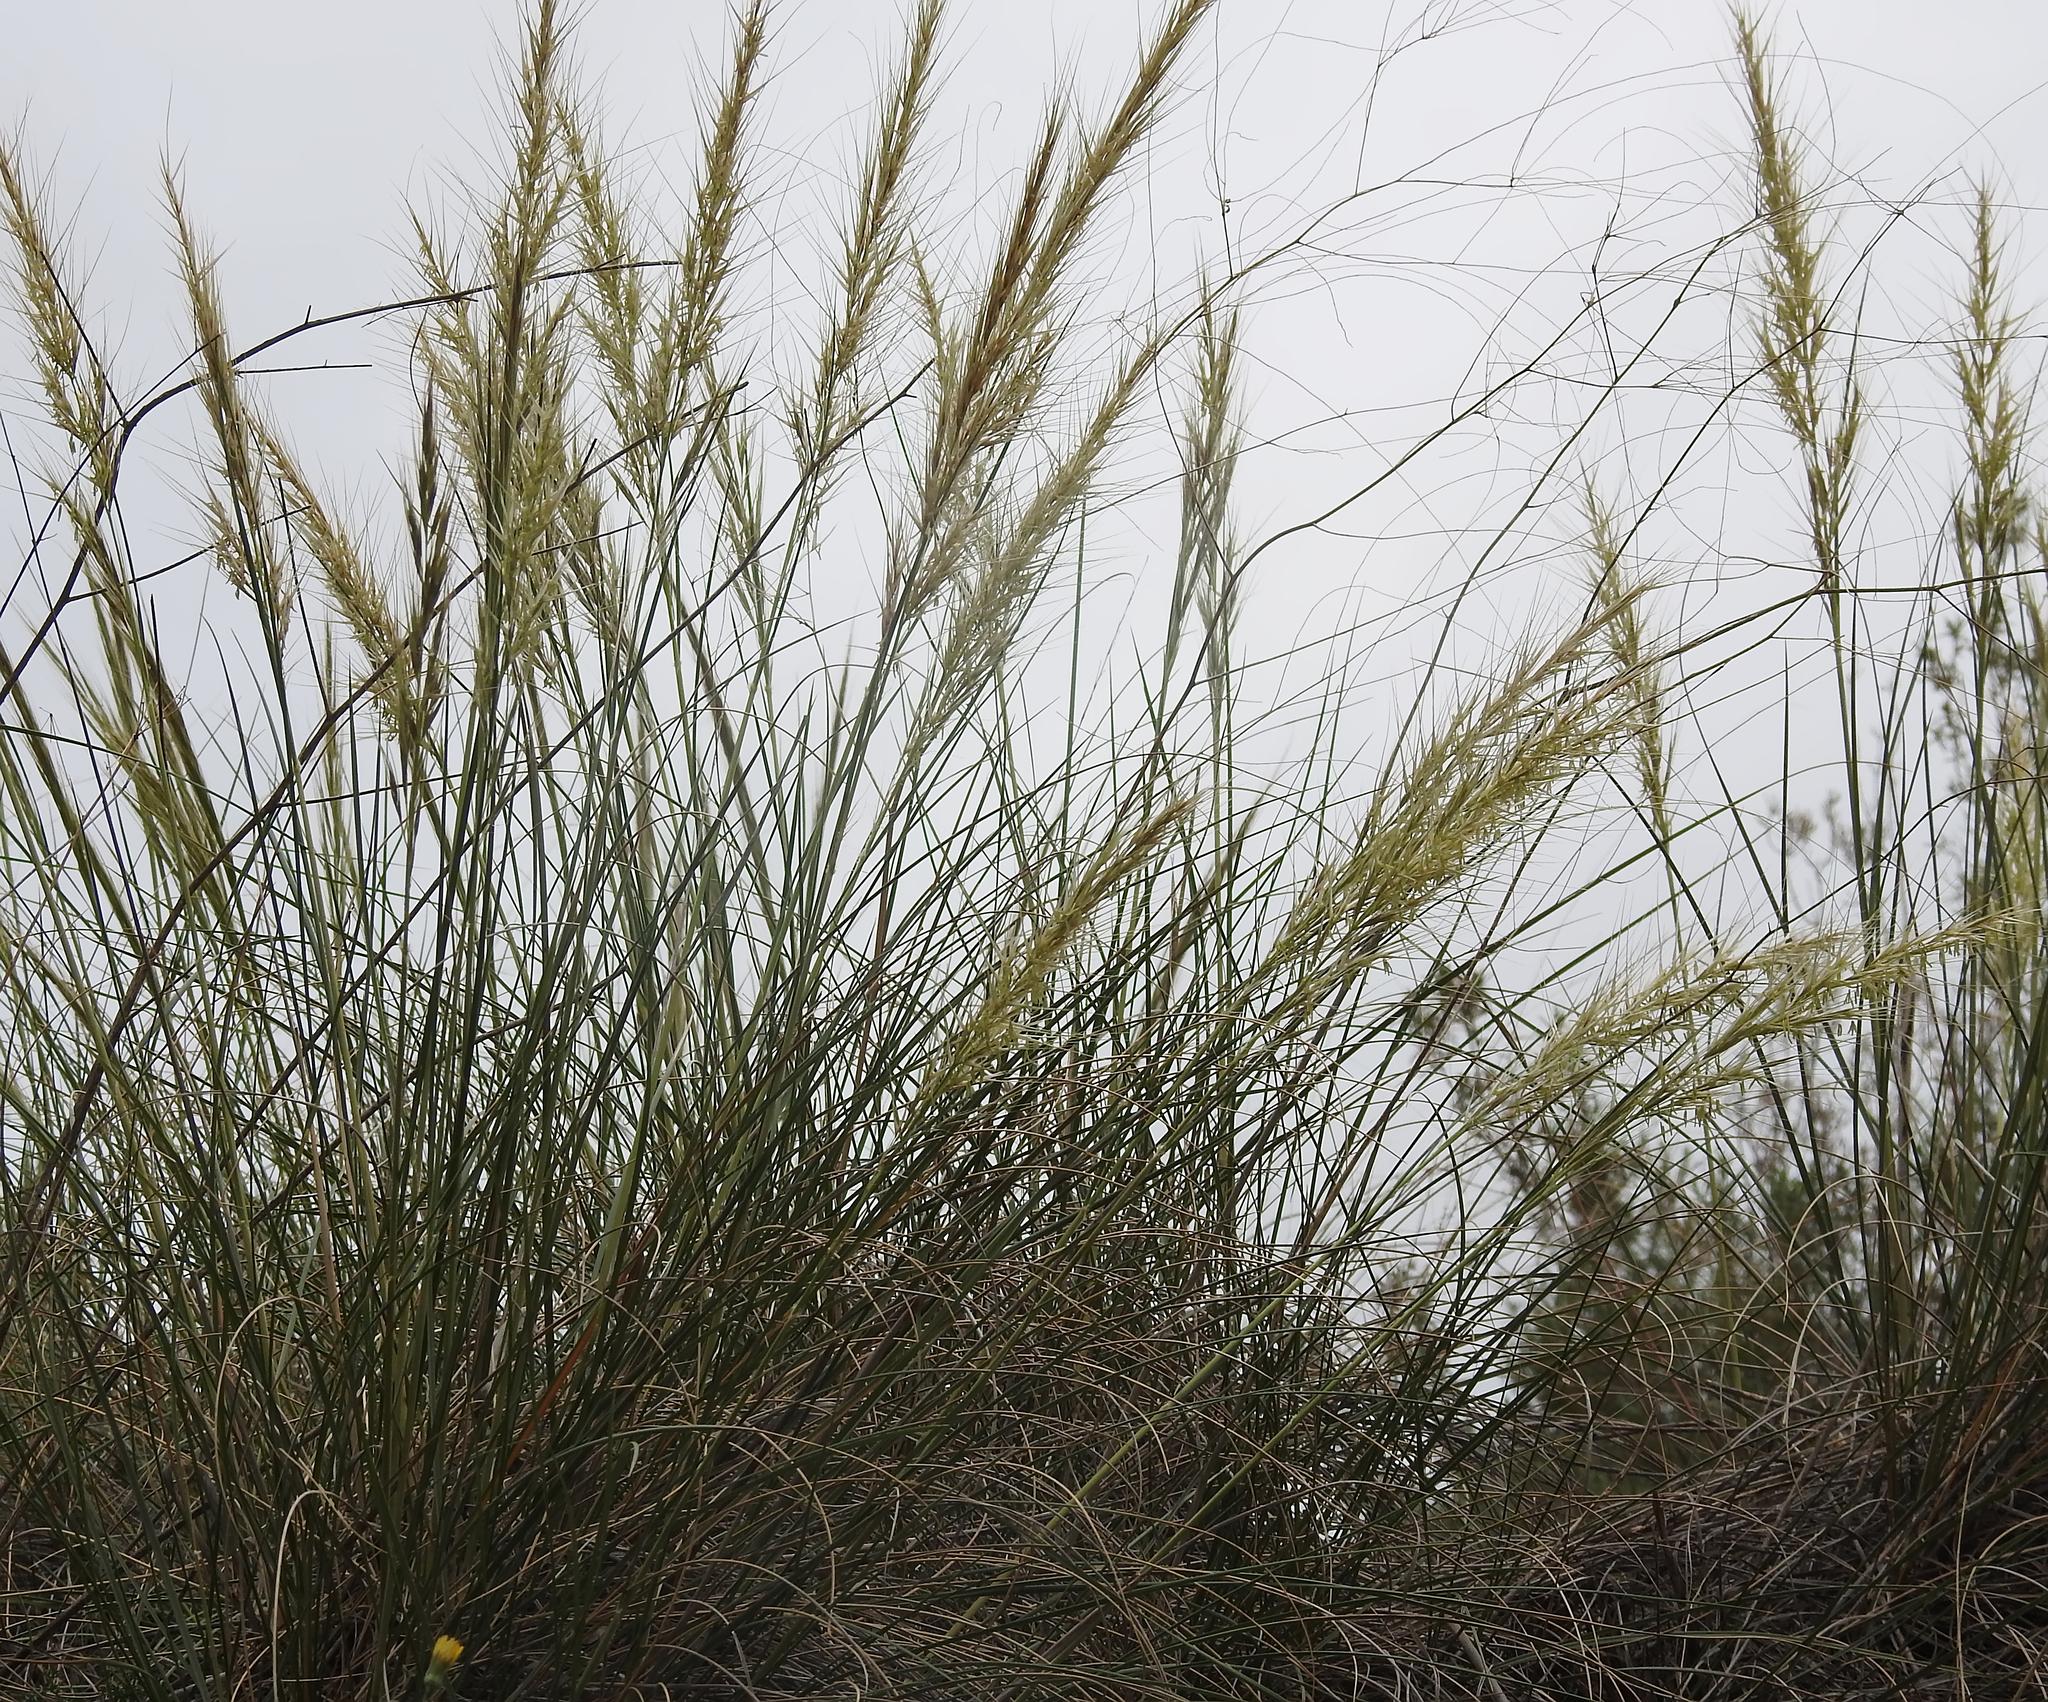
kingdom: Plantae
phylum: Tracheophyta
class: Liliopsida
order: Poales
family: Poaceae
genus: Arundo
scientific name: Arundo donax
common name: Giant reed
